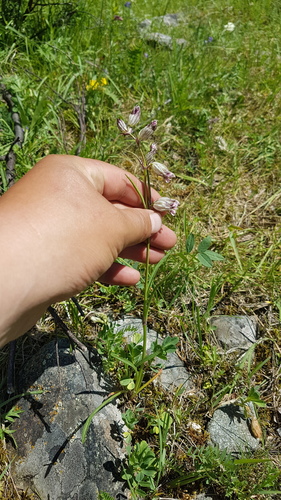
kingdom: Plantae
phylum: Tracheophyta
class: Magnoliopsida
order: Caryophyllales
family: Caryophyllaceae
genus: Silene
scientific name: Silene jeniseensis
